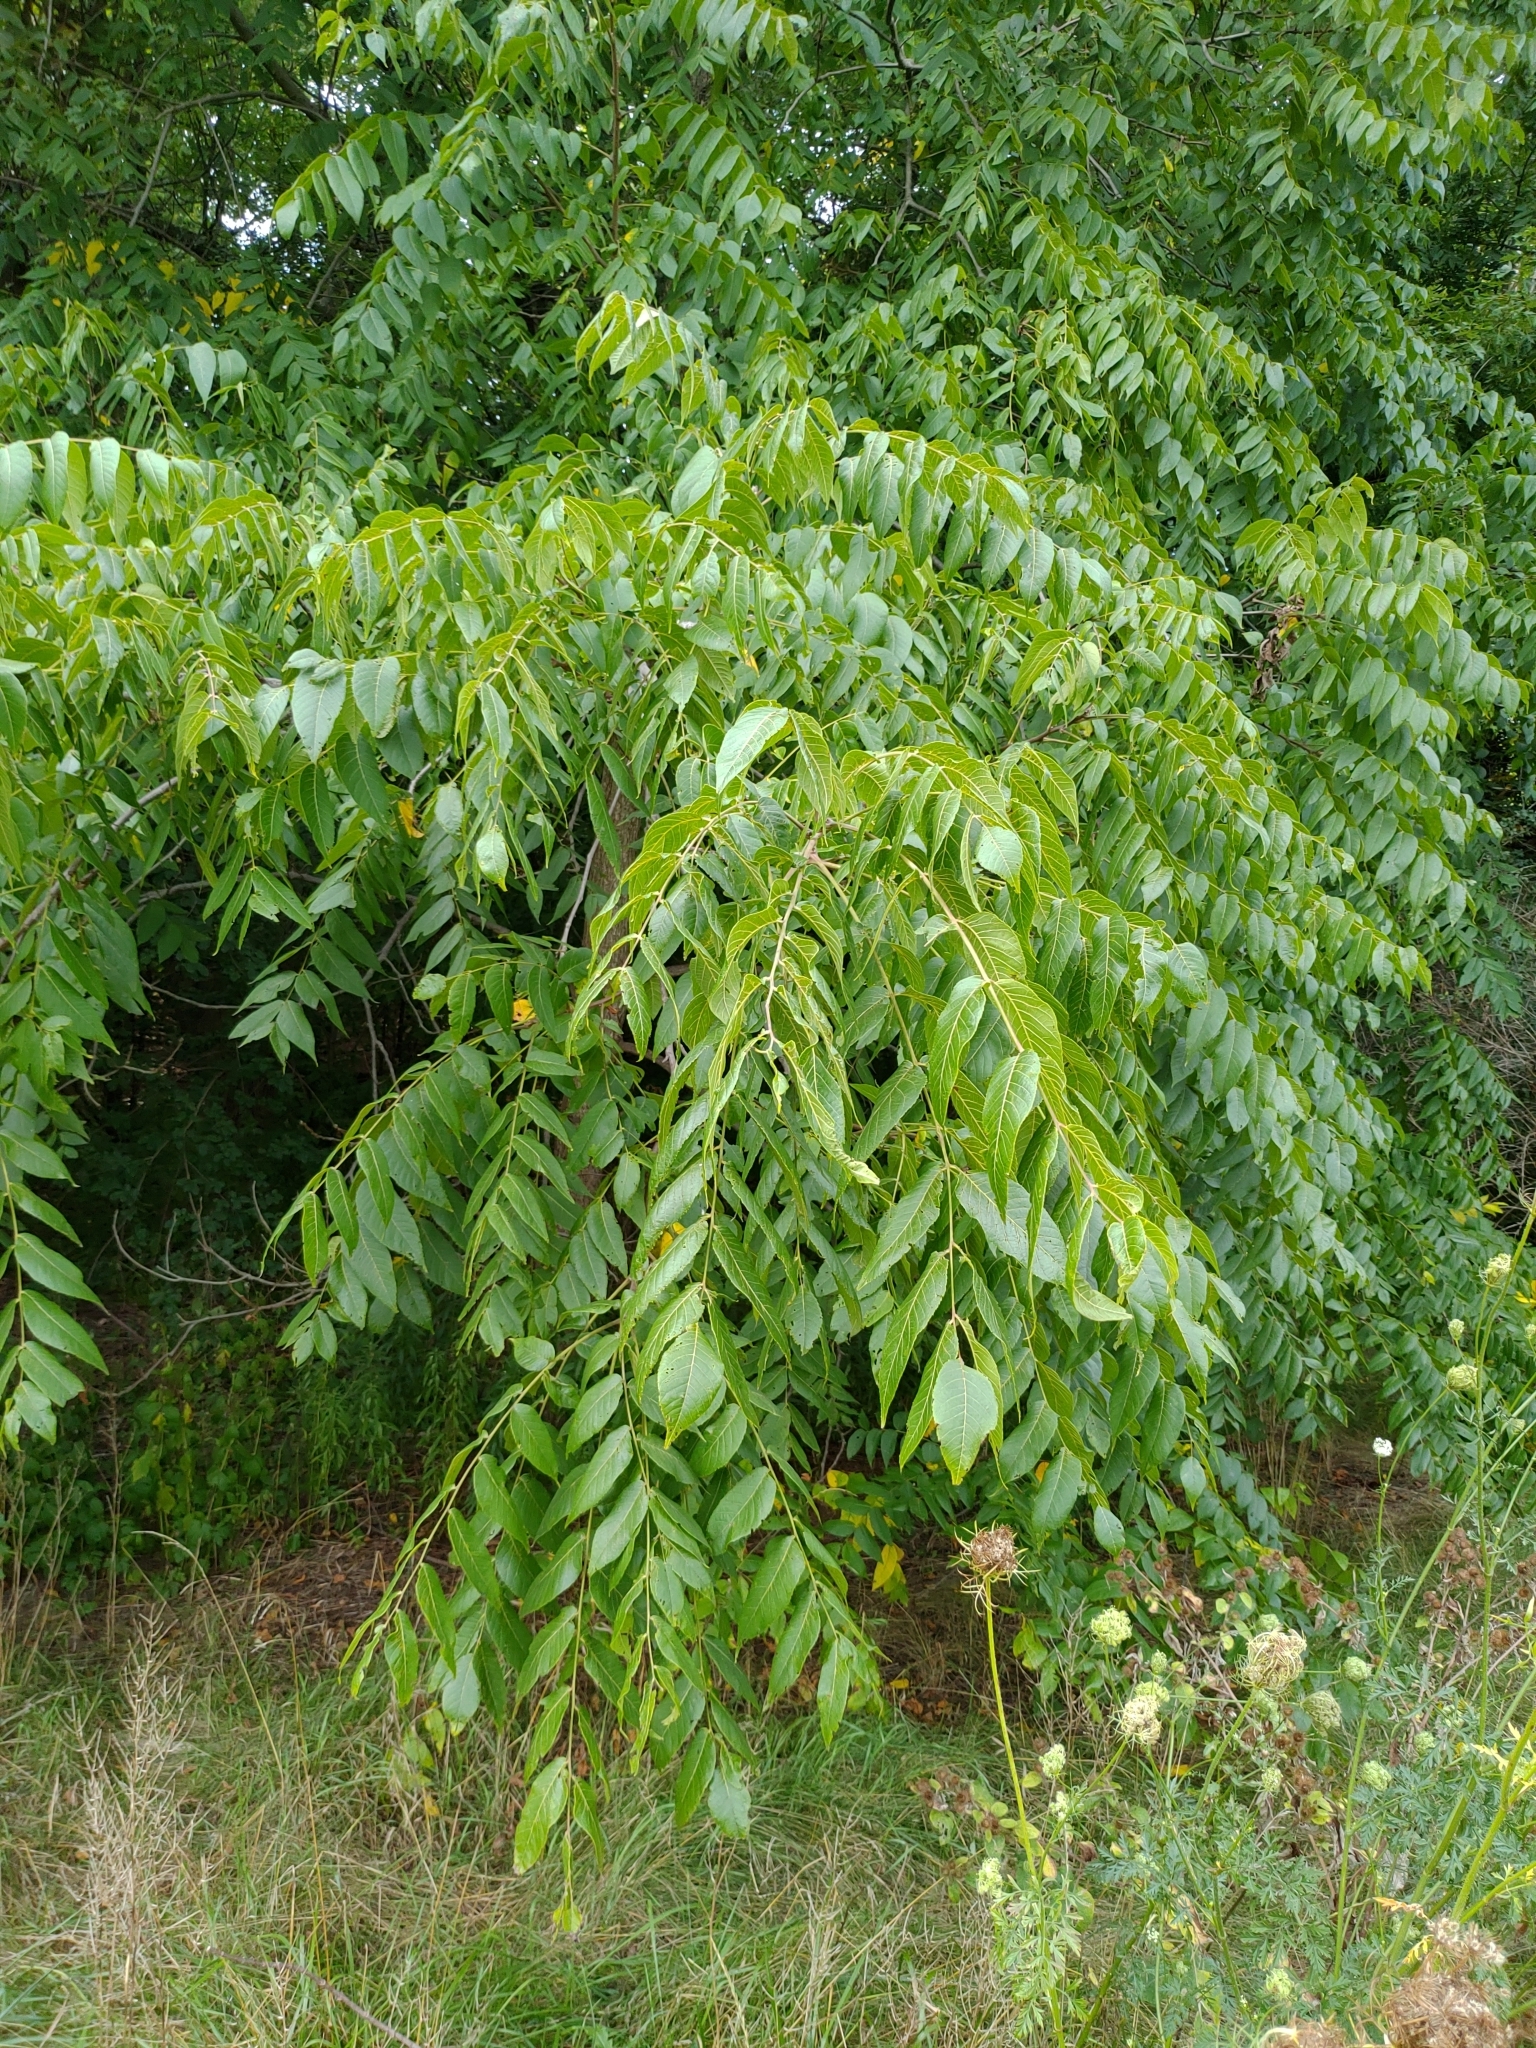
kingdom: Plantae
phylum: Tracheophyta
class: Magnoliopsida
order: Fagales
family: Juglandaceae
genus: Juglans
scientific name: Juglans nigra
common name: Black walnut
